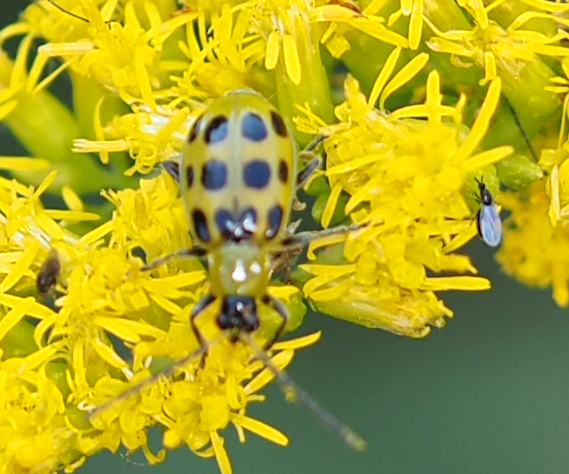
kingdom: Animalia
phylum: Arthropoda
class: Insecta
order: Coleoptera
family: Chrysomelidae
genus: Diabrotica
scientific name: Diabrotica undecimpunctata
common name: Spotted cucumber beetle
